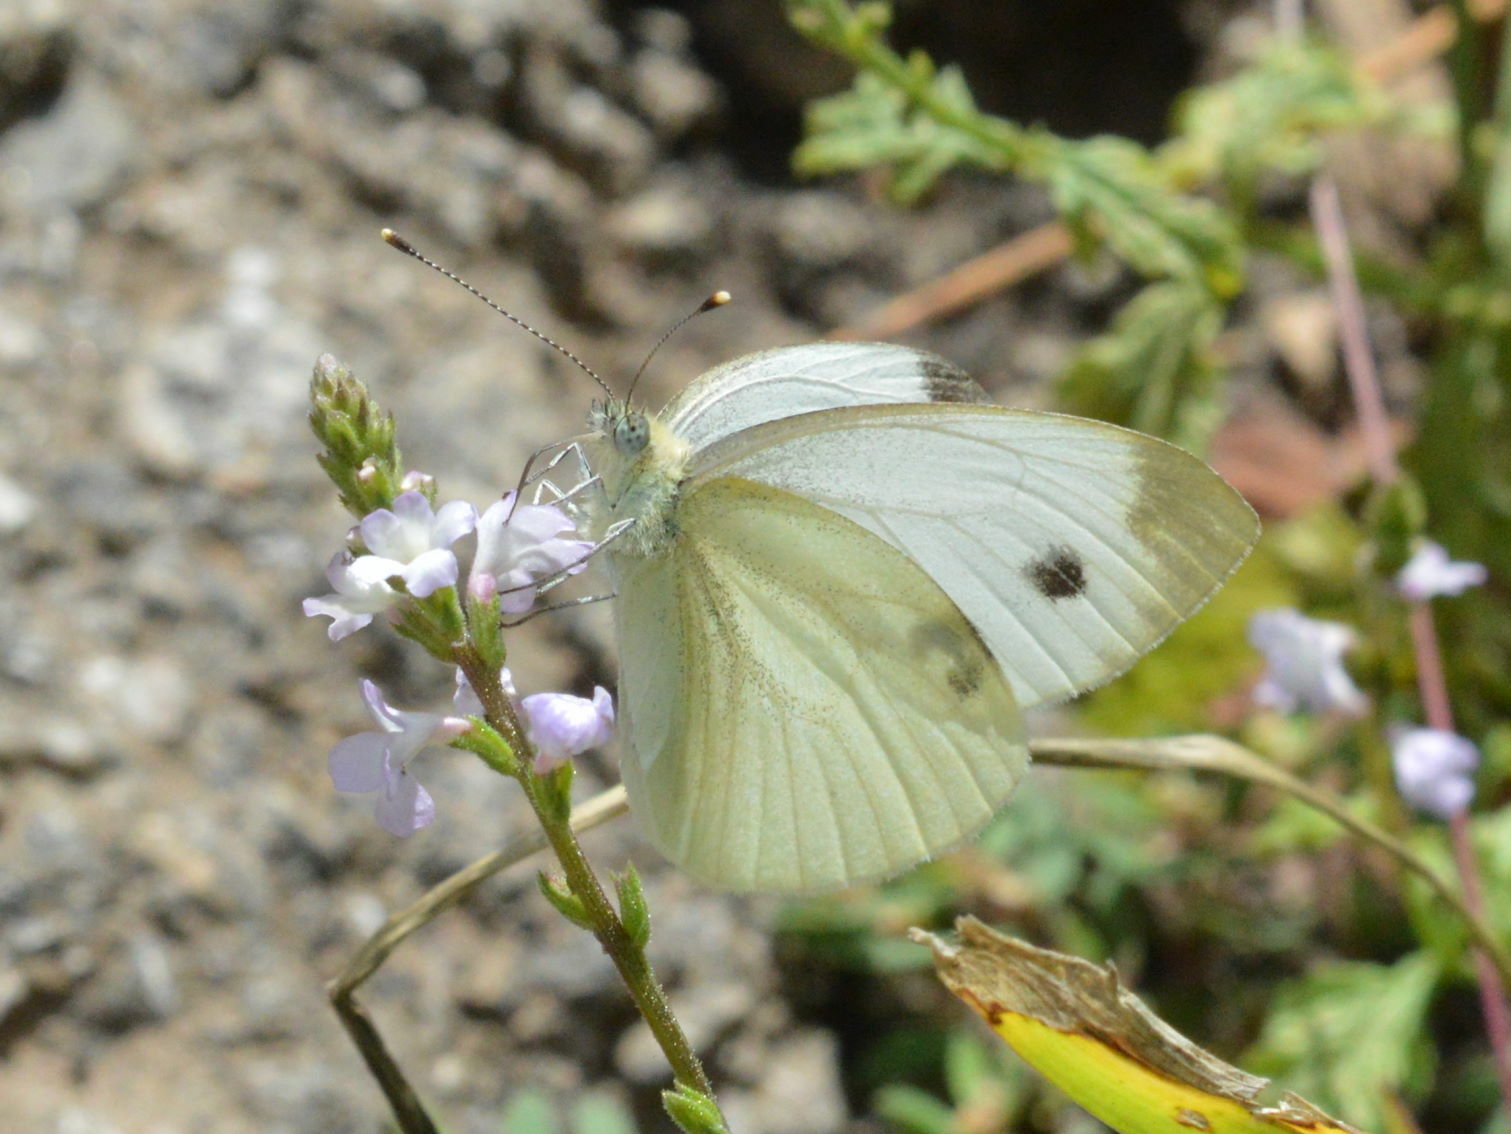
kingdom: Animalia
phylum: Arthropoda
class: Insecta
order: Lepidoptera
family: Pieridae
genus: Pieris
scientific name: Pieris napi
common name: Green-veined white
